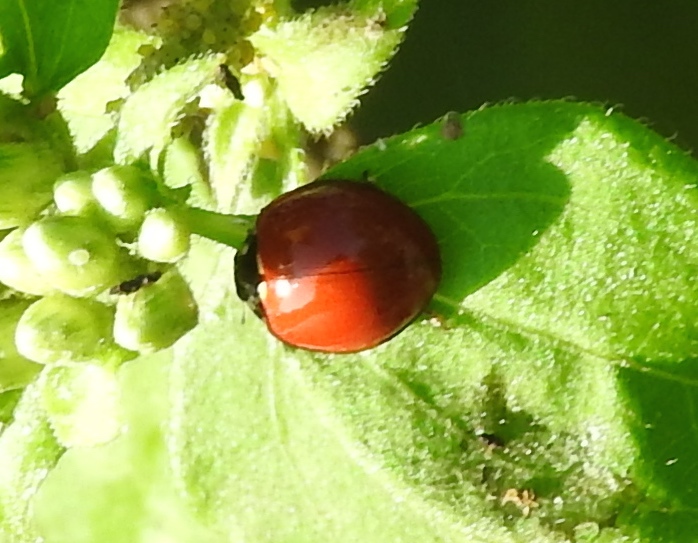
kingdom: Animalia
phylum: Arthropoda
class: Insecta
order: Coleoptera
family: Coccinellidae
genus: Cycloneda
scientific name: Cycloneda
